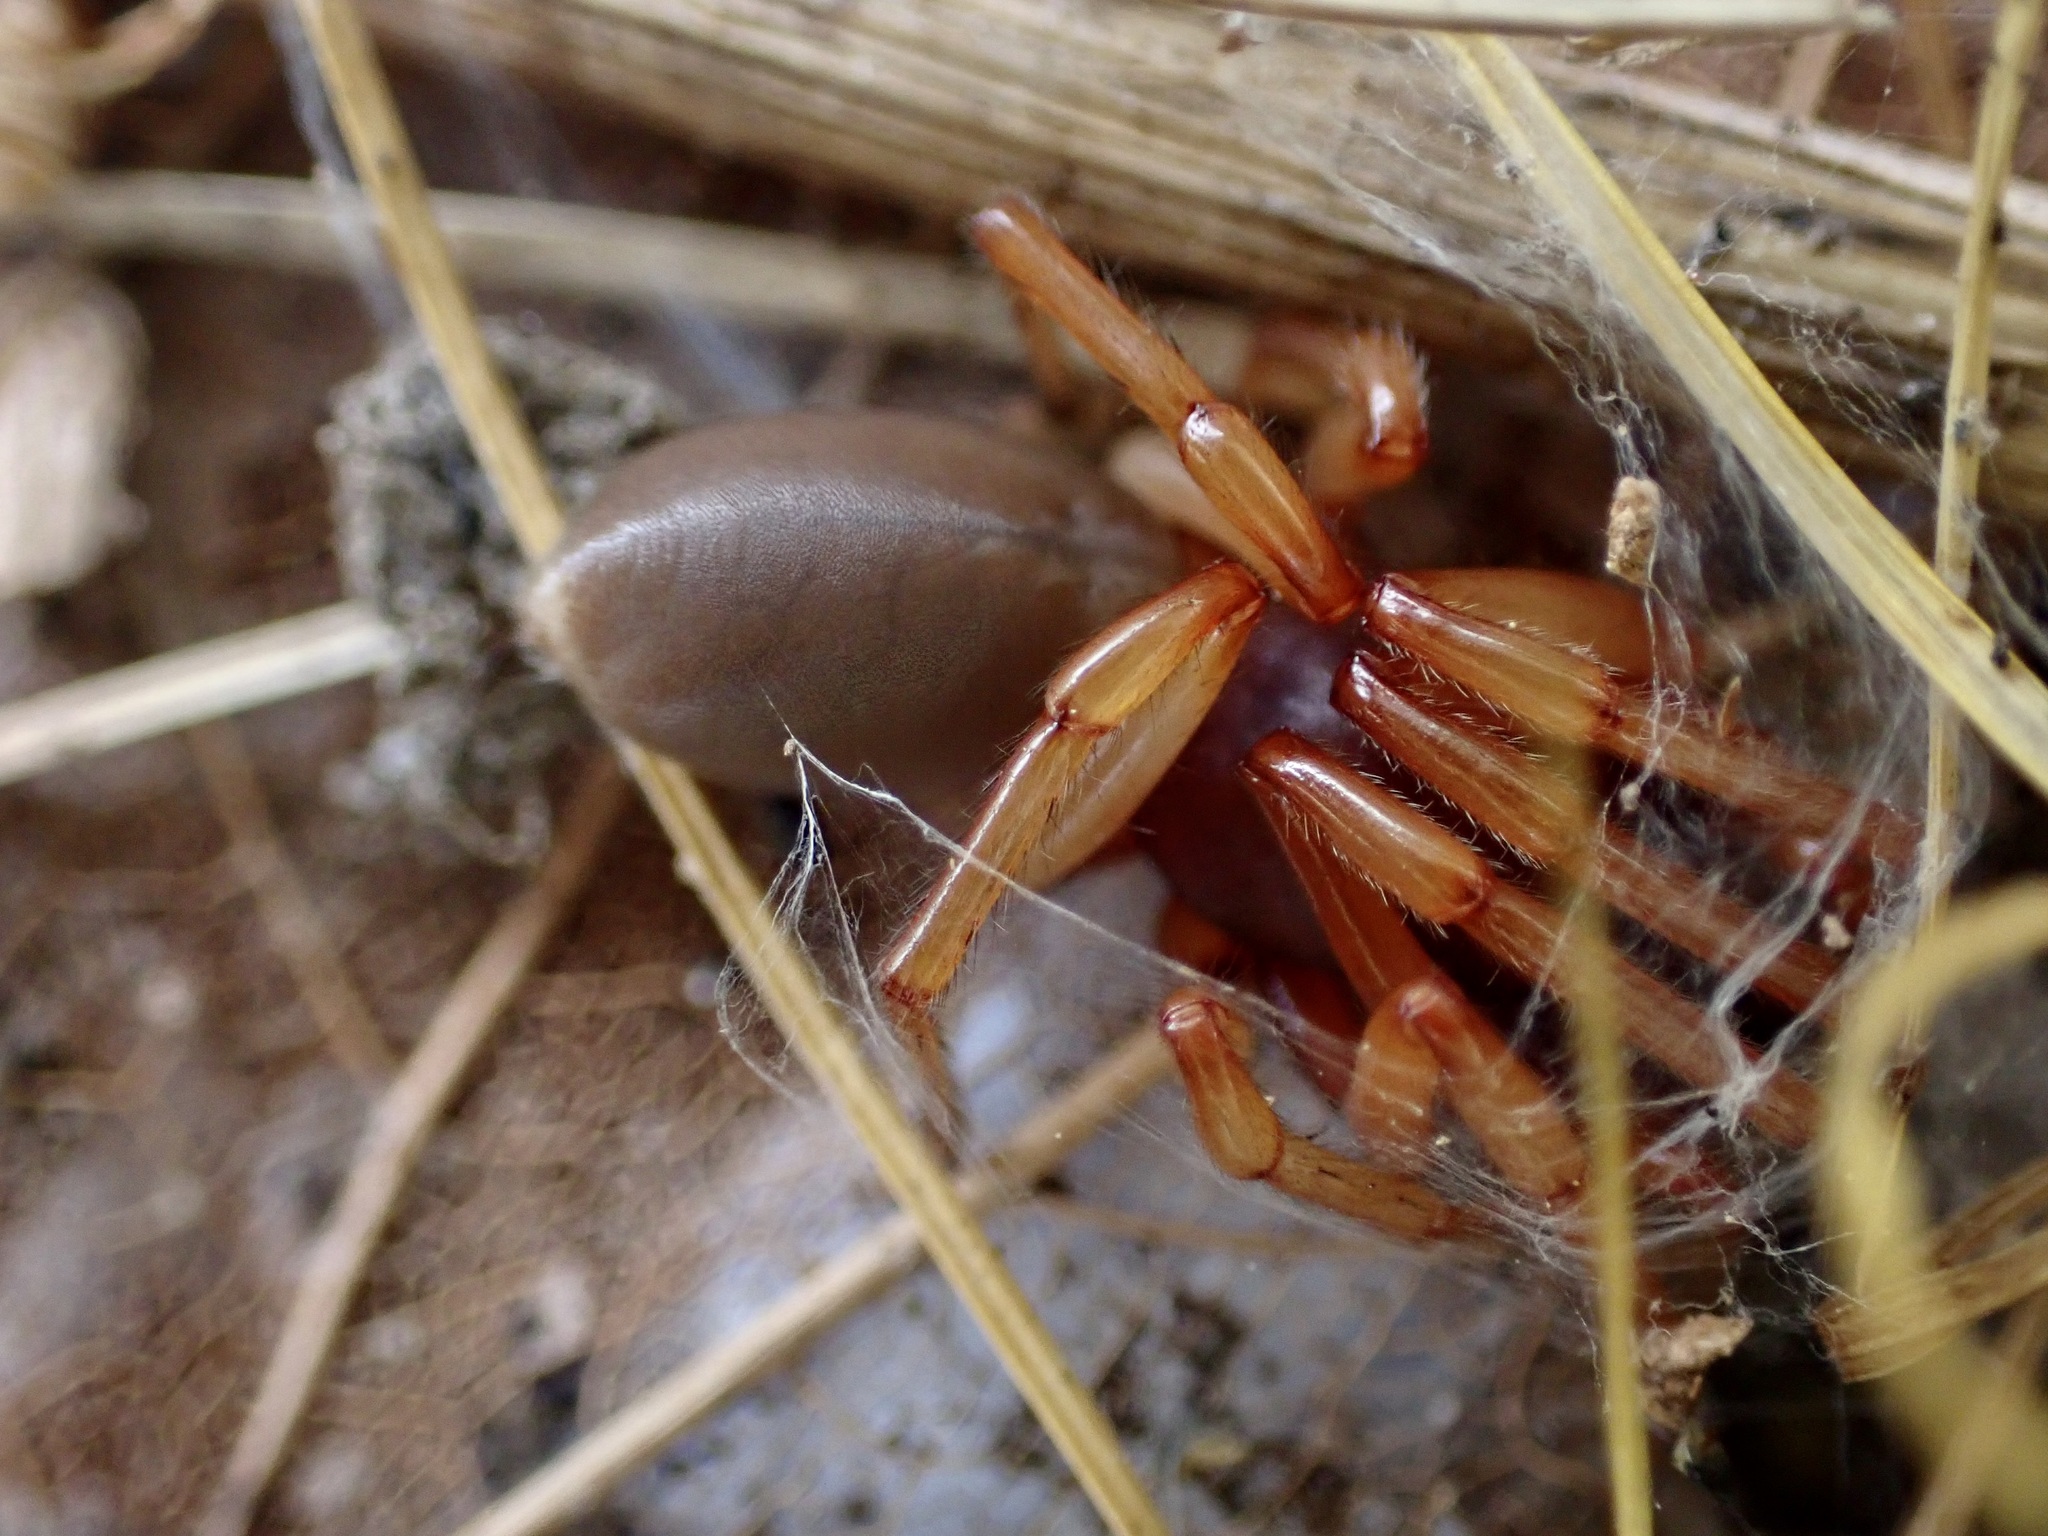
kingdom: Animalia
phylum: Arthropoda
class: Arachnida
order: Araneae
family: Dysderidae
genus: Dysdera
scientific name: Dysdera crocata
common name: Woodlouse spider
